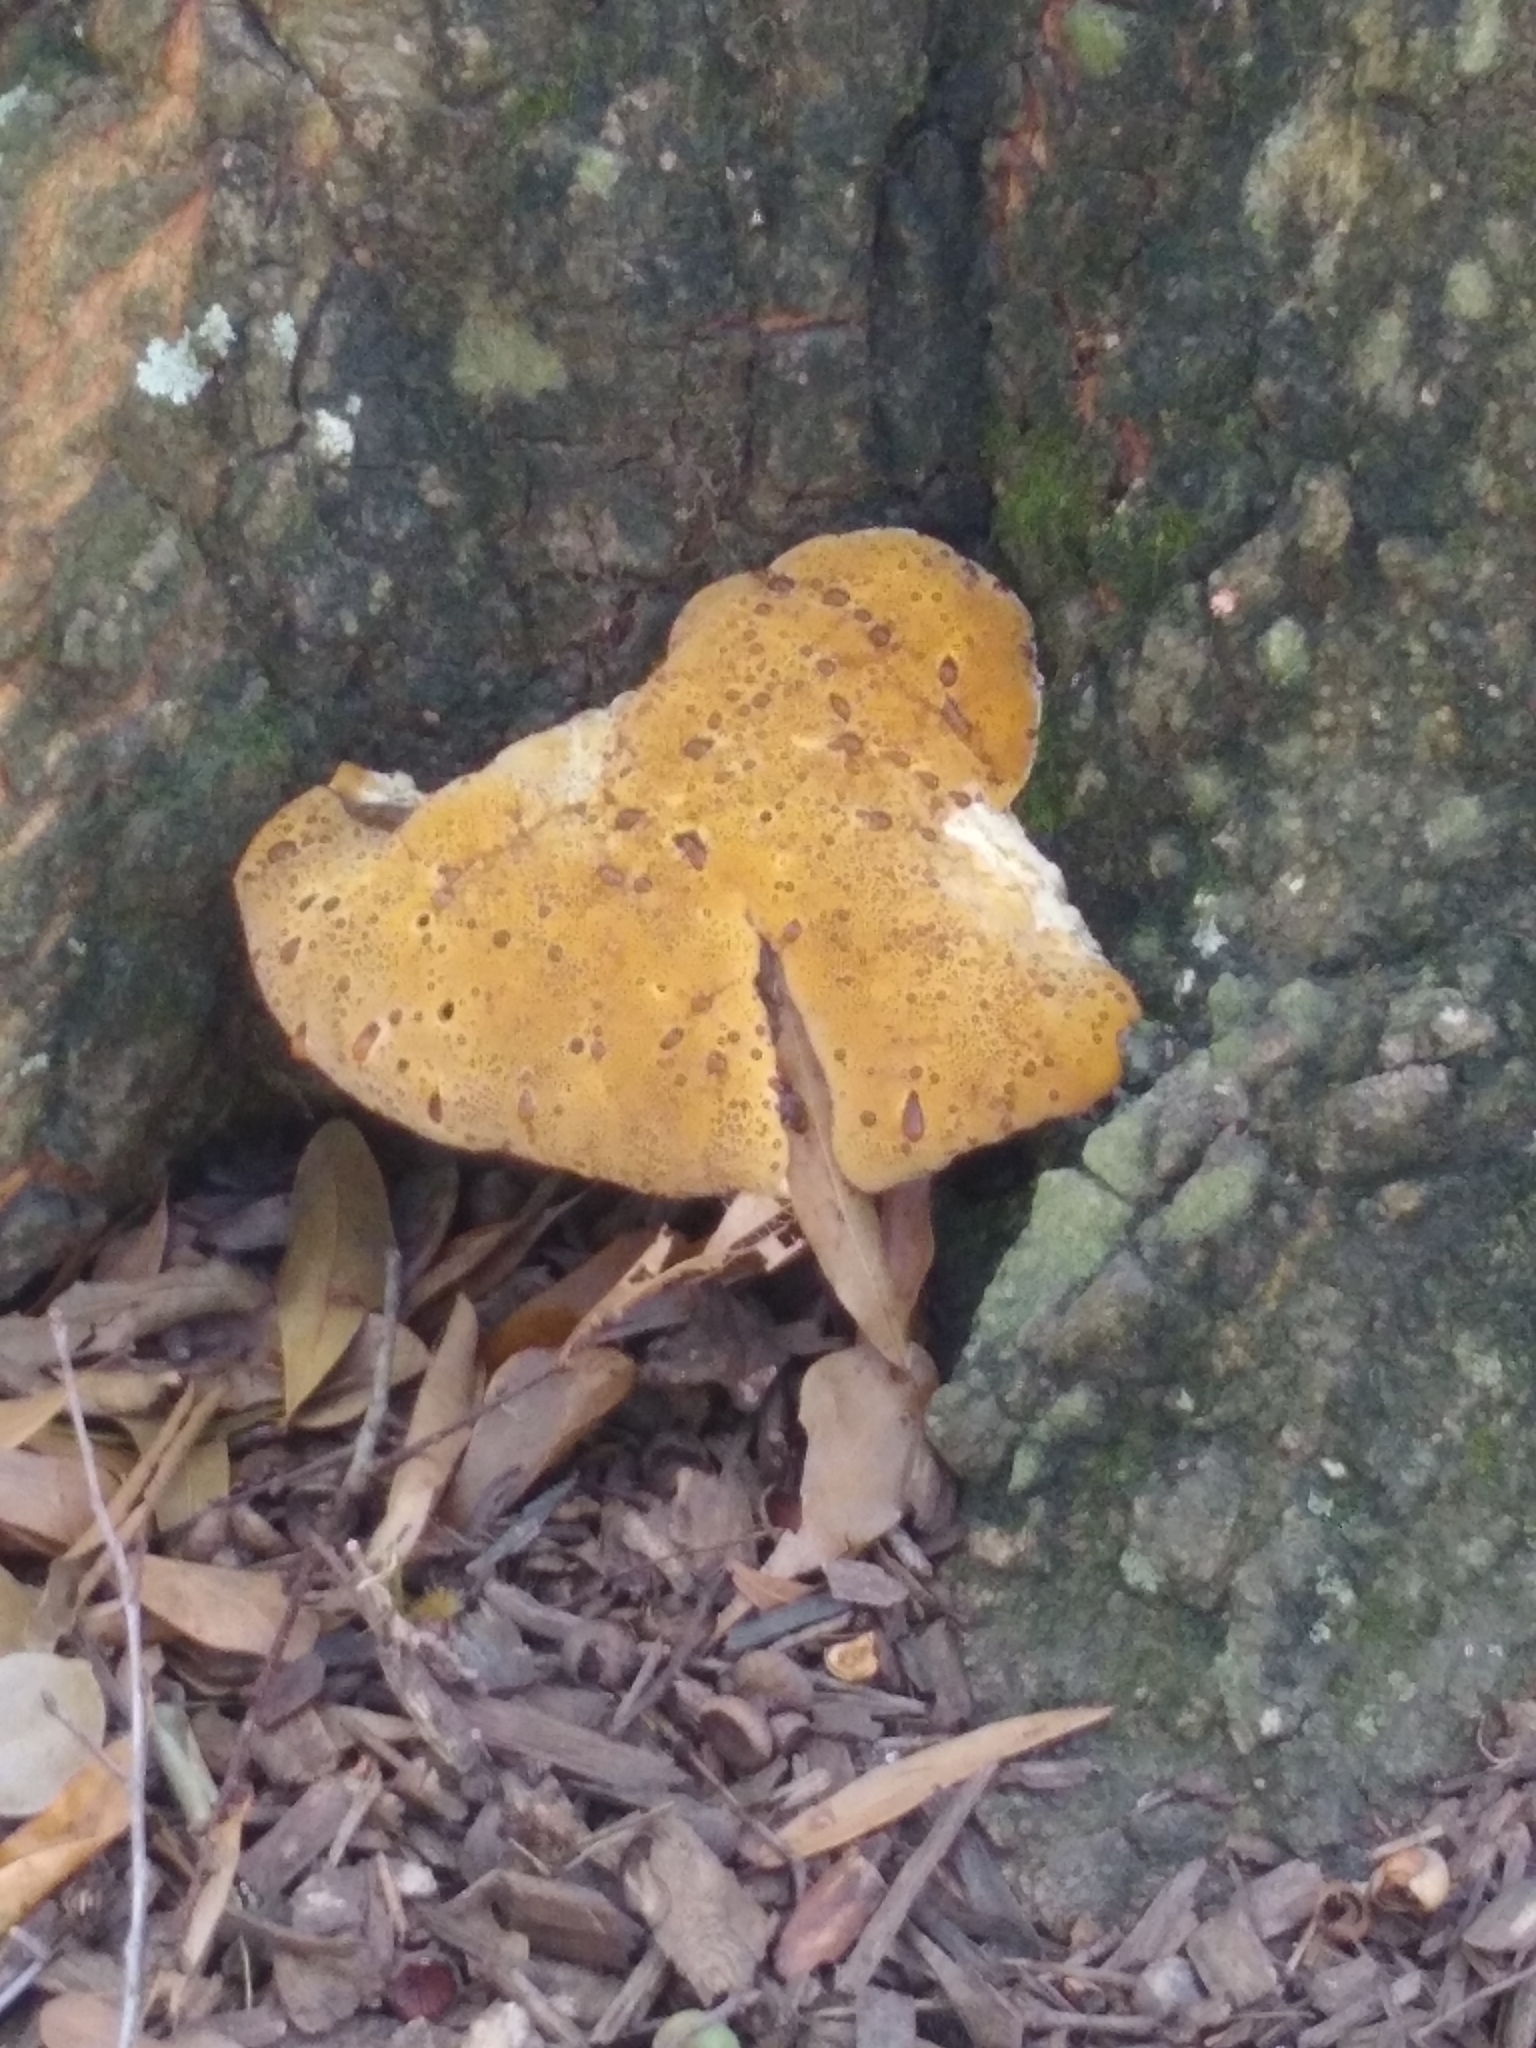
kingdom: Fungi
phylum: Basidiomycota
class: Agaricomycetes
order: Hymenochaetales
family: Hymenochaetaceae
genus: Pseudoinonotus
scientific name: Pseudoinonotus dryadeus
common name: Oak bracket
